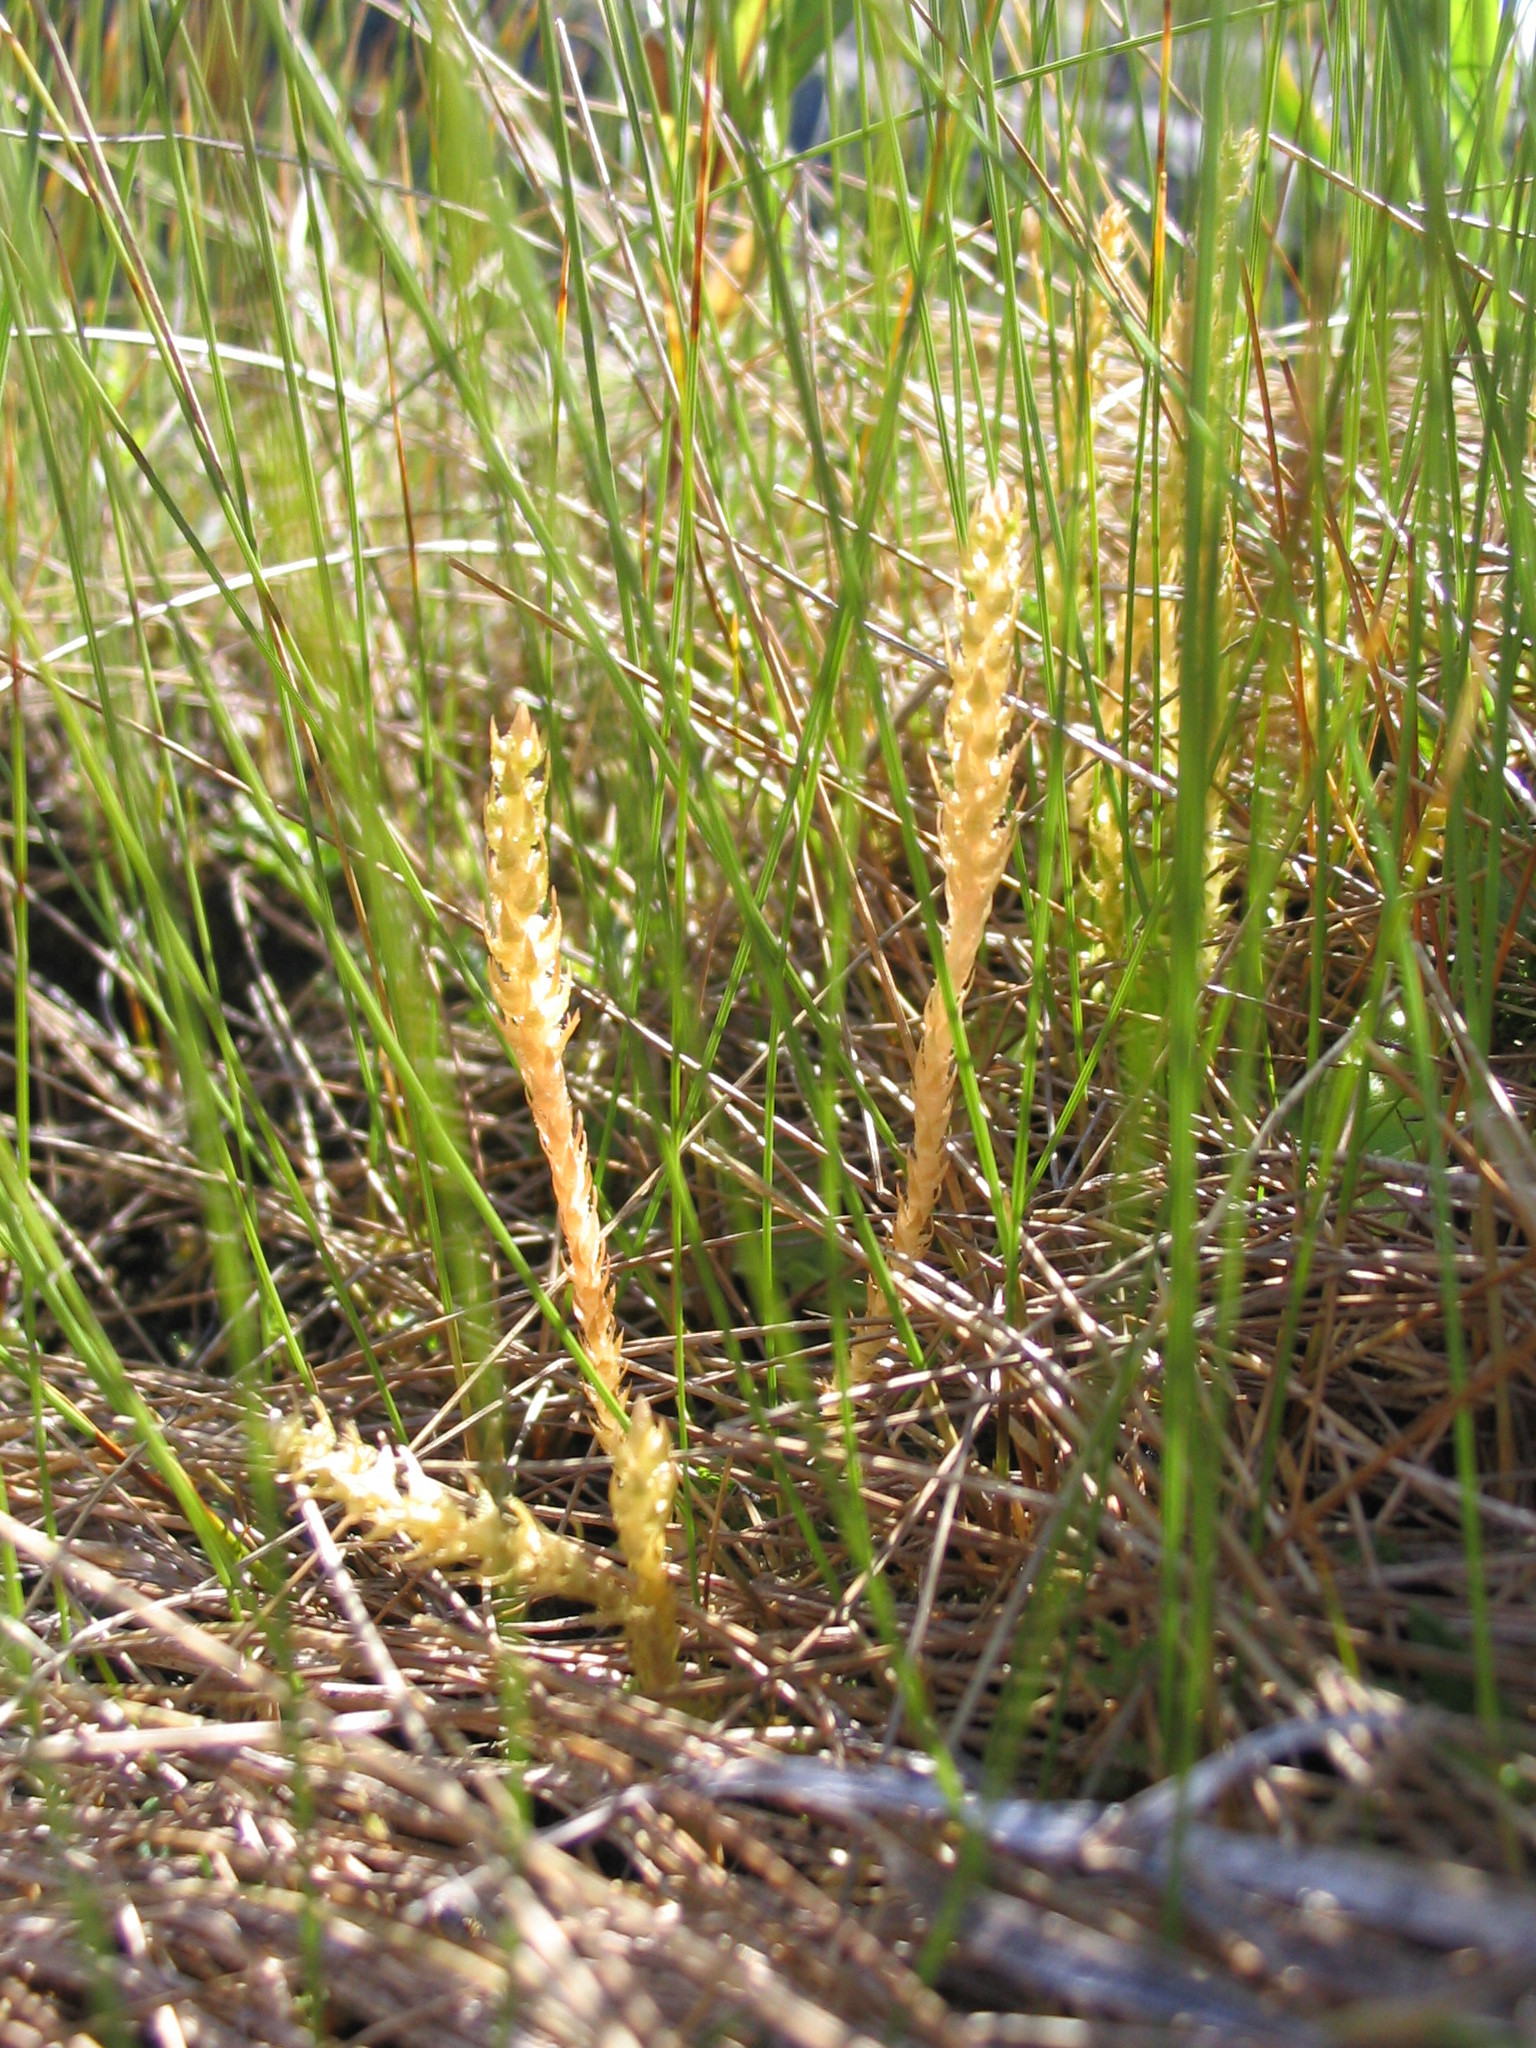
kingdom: Plantae
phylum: Tracheophyta
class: Lycopodiopsida
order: Selaginellales
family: Selaginellaceae
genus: Selaginella
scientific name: Selaginella selaginoides
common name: Prickly mountain-moss
